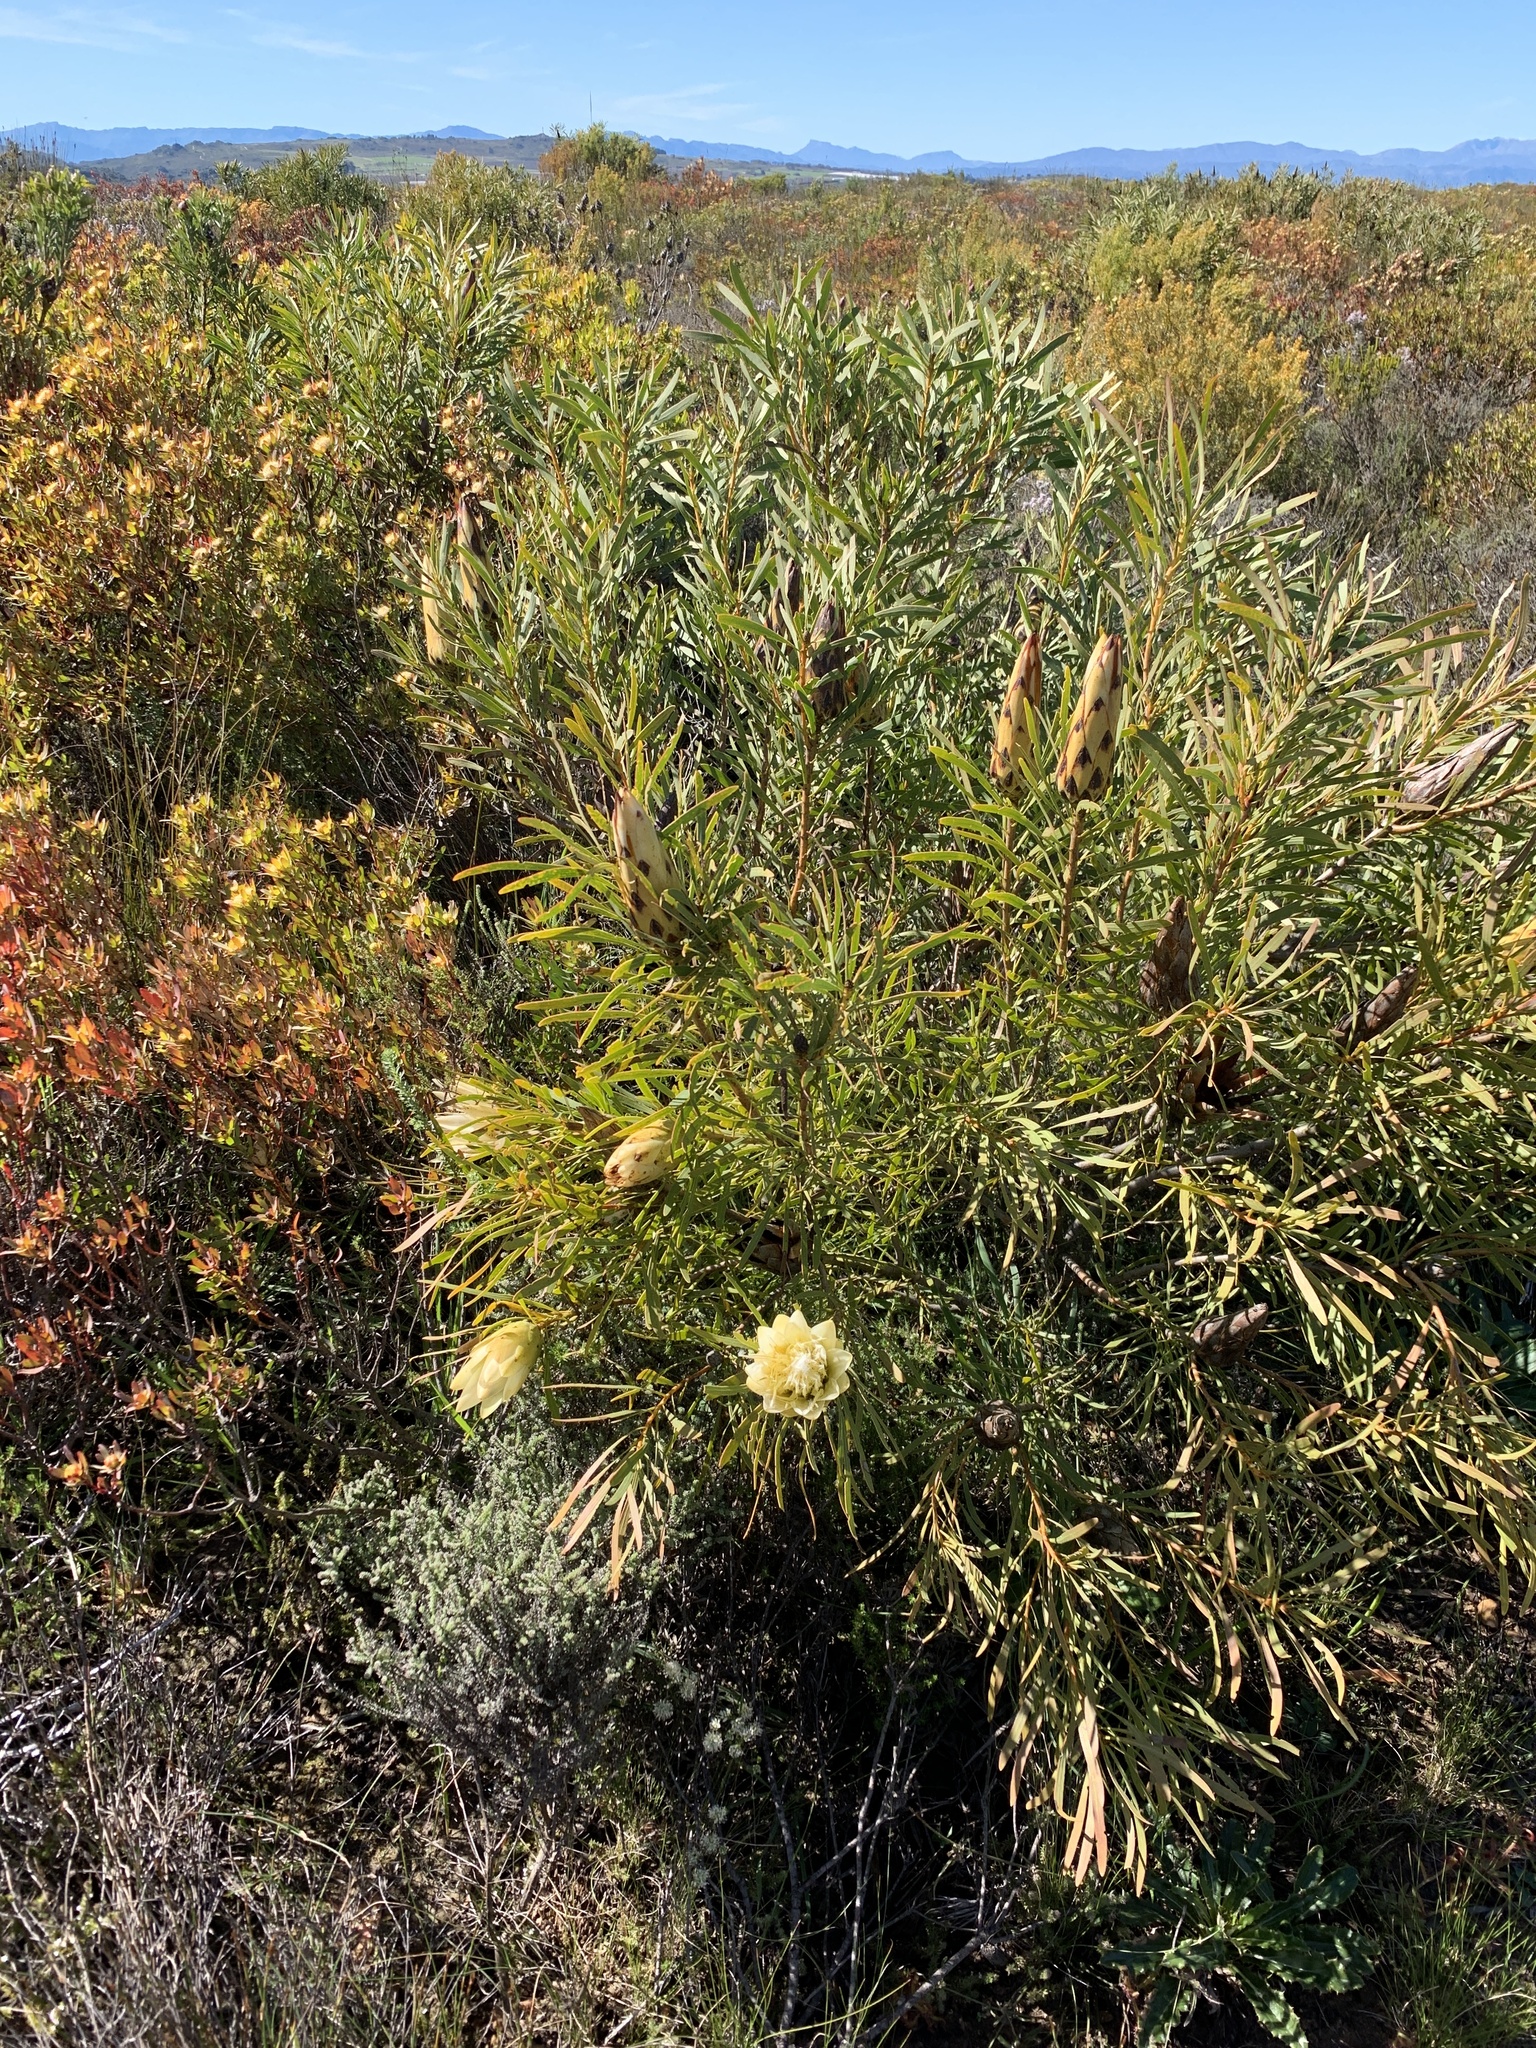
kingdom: Plantae
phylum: Tracheophyta
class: Magnoliopsida
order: Proteales
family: Proteaceae
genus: Protea
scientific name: Protea repens
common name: Sugarbush
